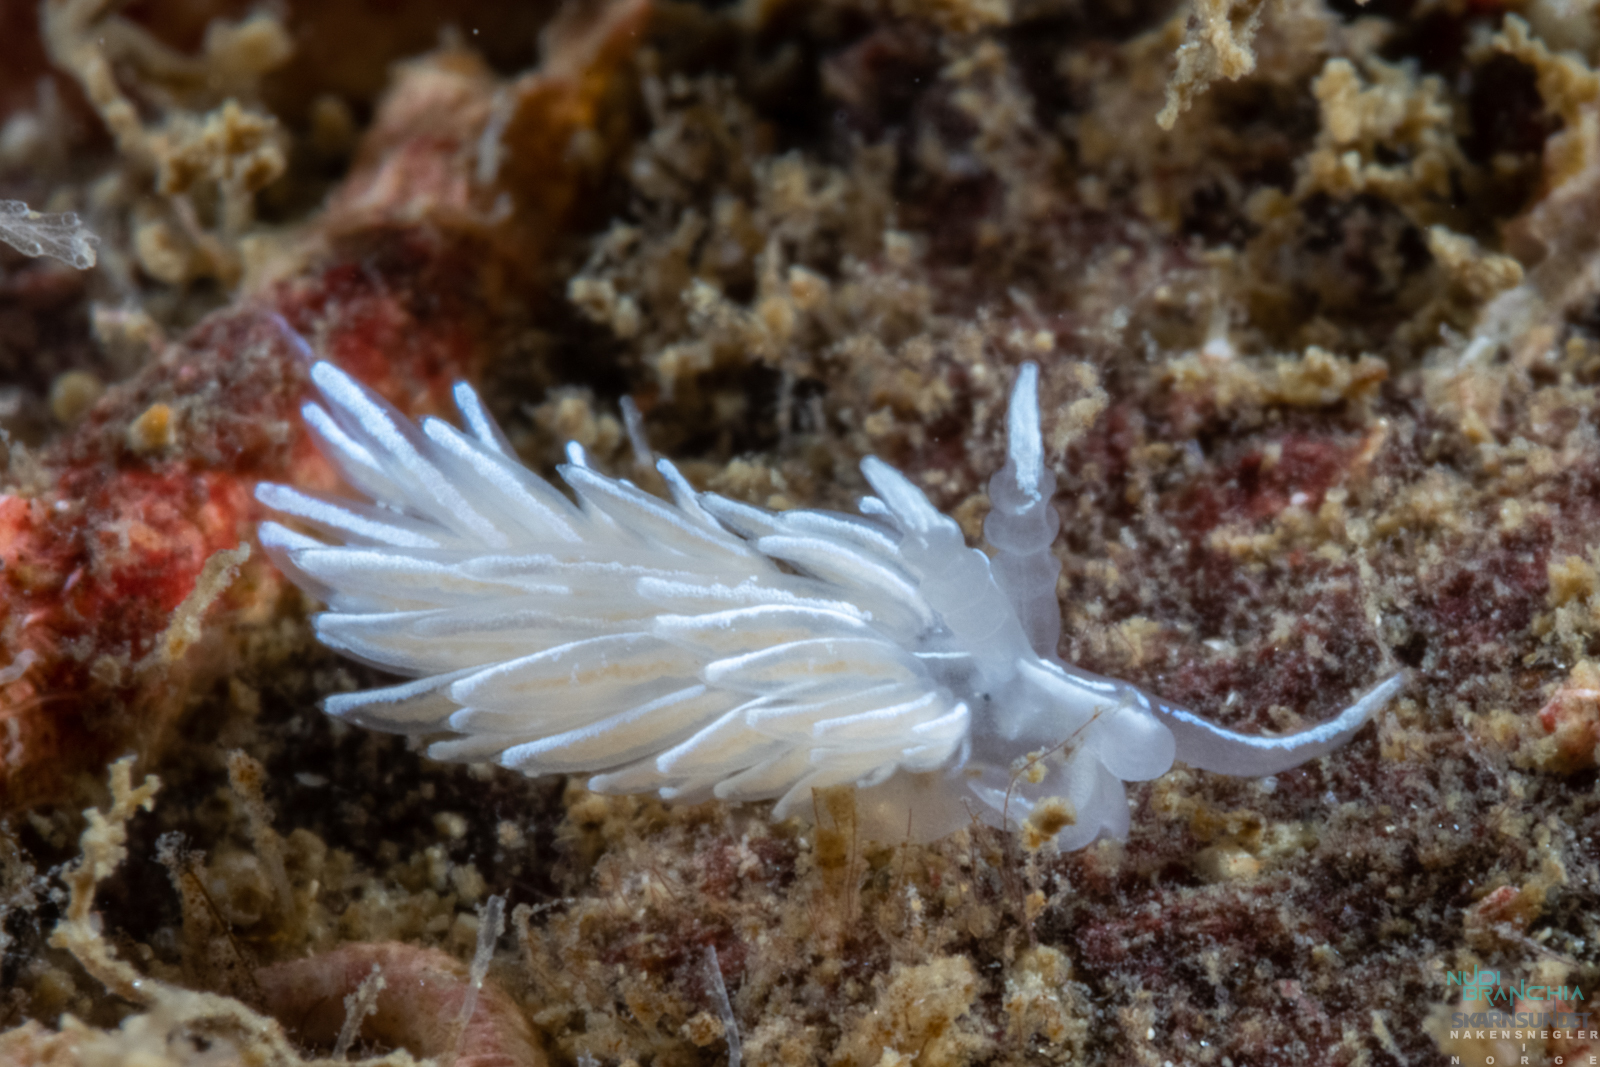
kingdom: Animalia
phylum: Mollusca
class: Gastropoda
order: Nudibranchia
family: Facelinidae
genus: Favorinus
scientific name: Favorinus blianus
